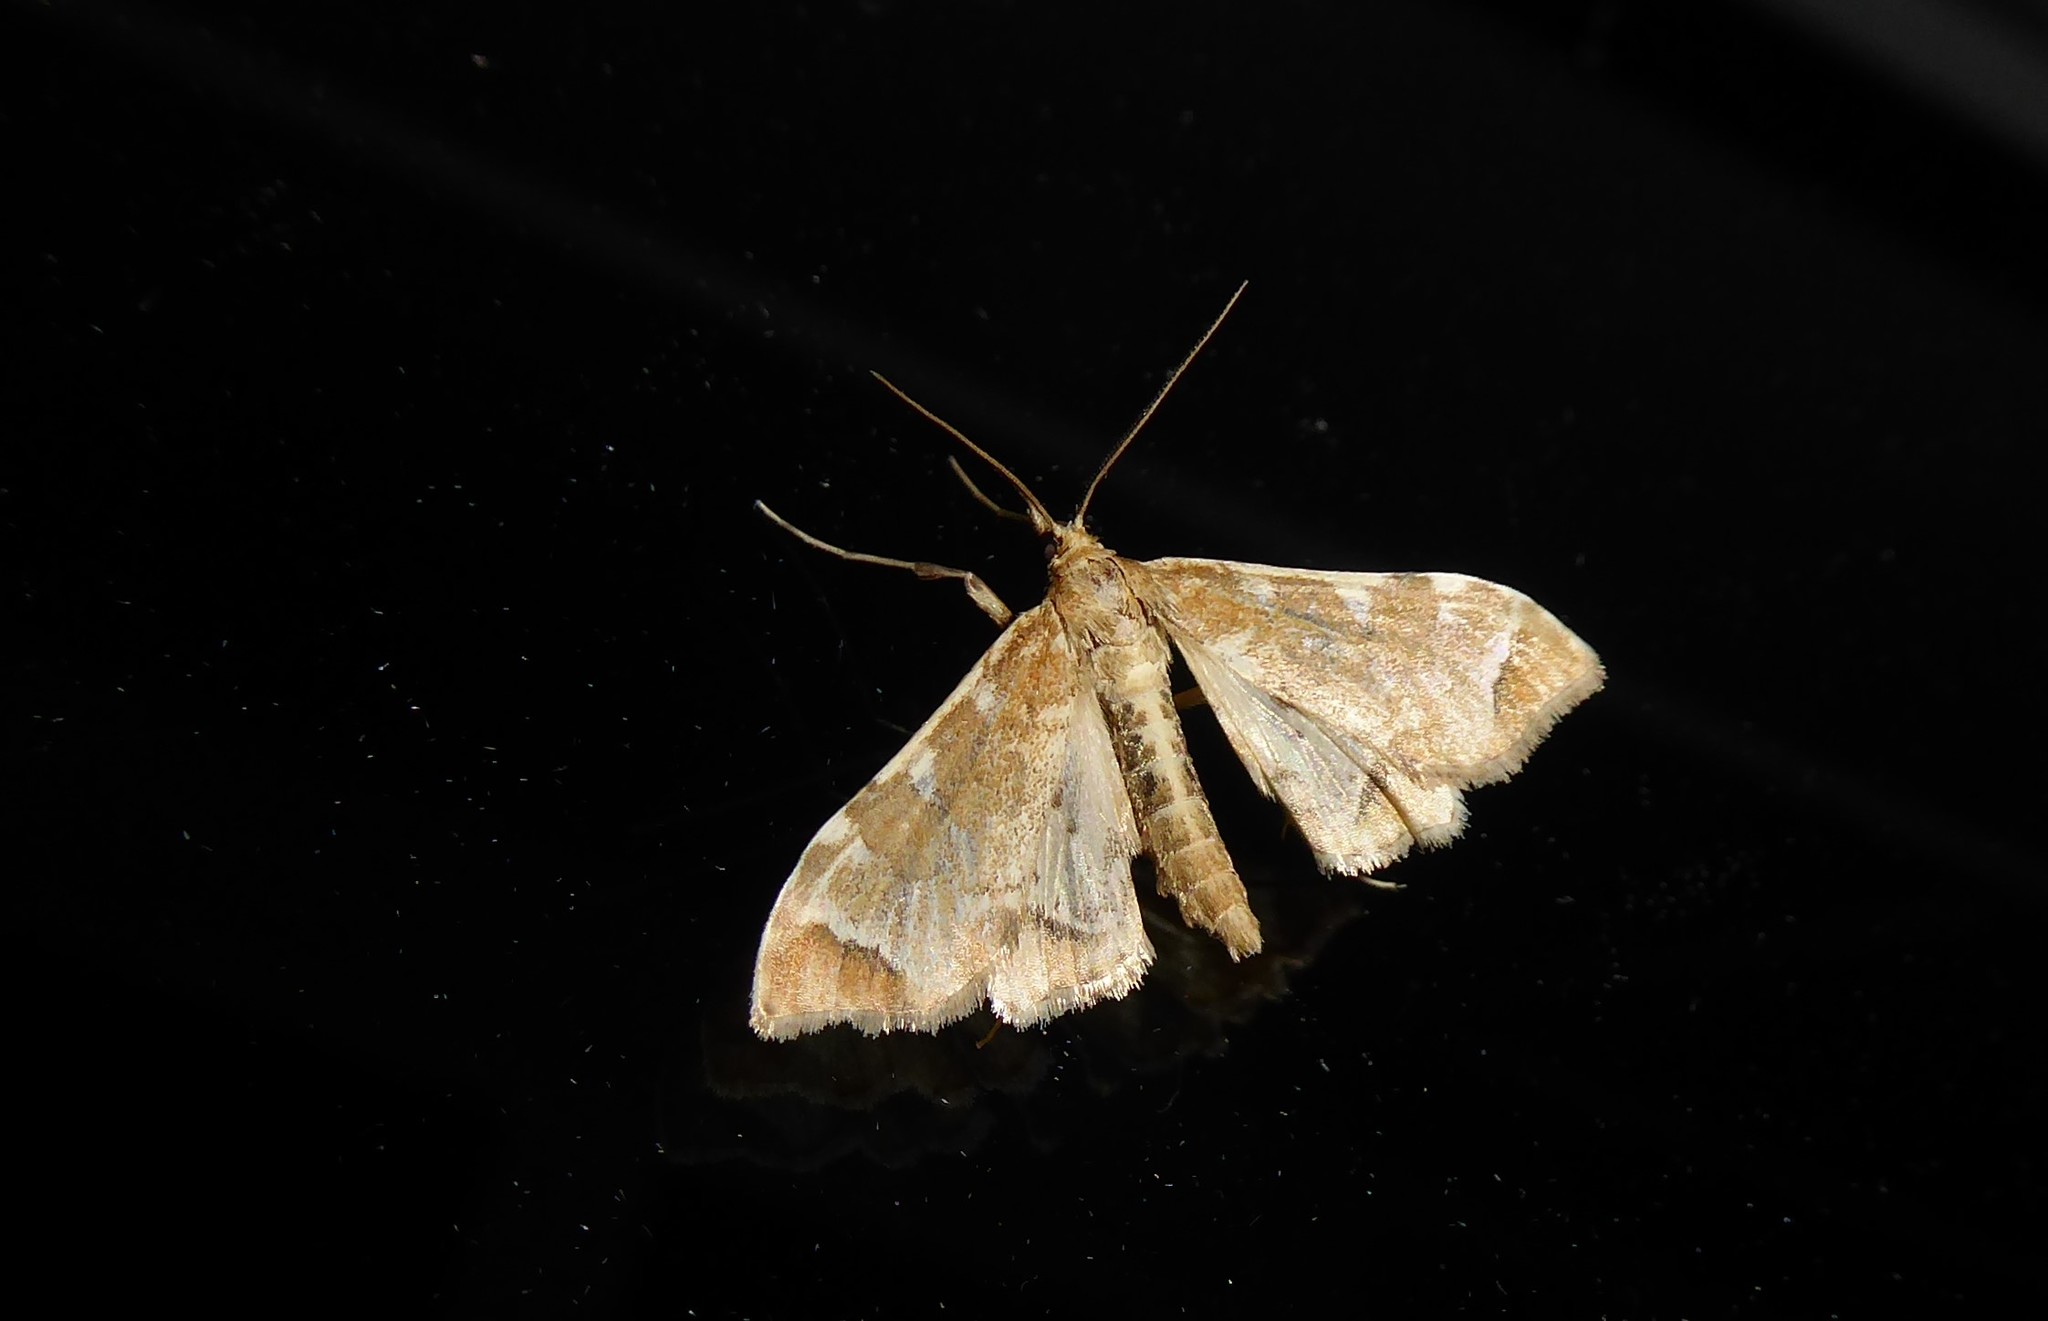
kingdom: Animalia
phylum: Arthropoda
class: Insecta
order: Lepidoptera
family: Crambidae
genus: Sceliodes
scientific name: Sceliodes cordalis
